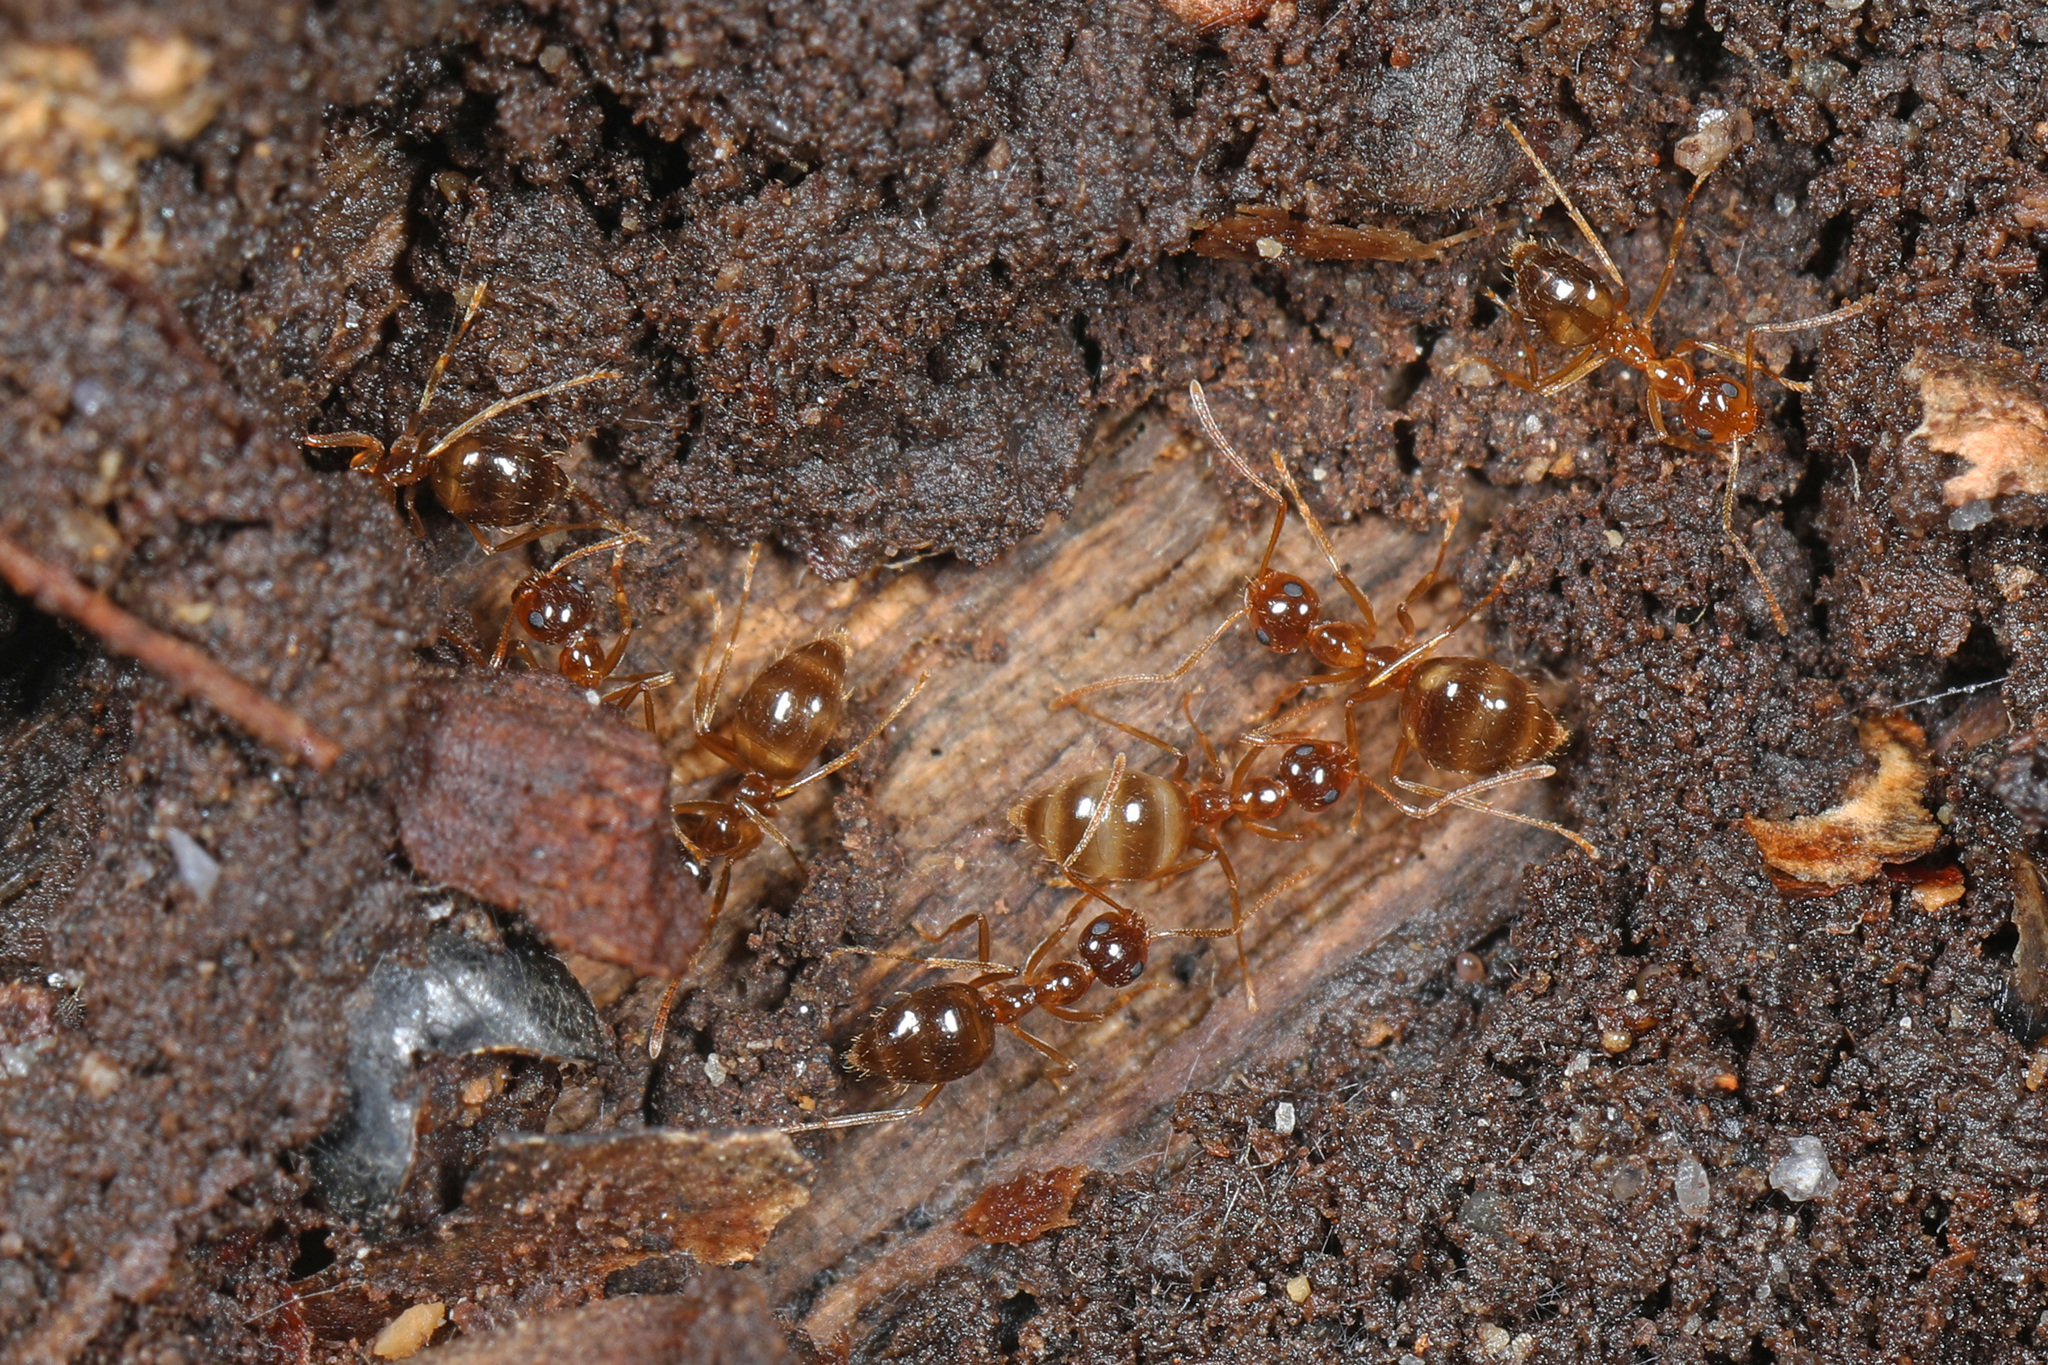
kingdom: Animalia
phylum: Arthropoda
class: Insecta
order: Hymenoptera
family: Formicidae
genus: Prenolepis
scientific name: Prenolepis imparis
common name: Small honey ant
